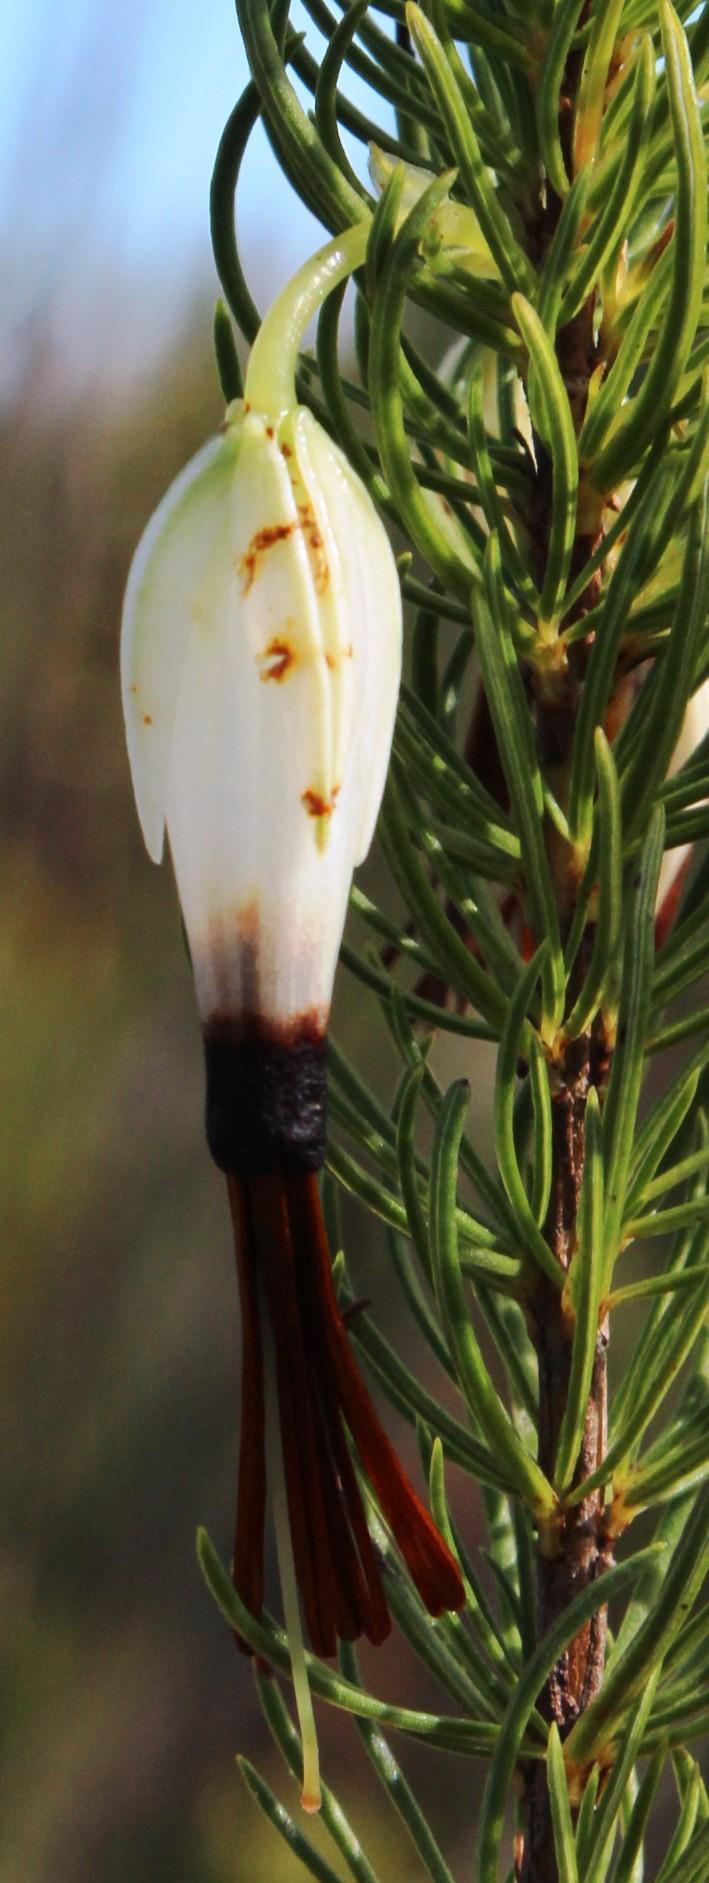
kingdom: Plantae
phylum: Tracheophyta
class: Magnoliopsida
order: Ericales
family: Ericaceae
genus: Erica
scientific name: Erica plukenetii
